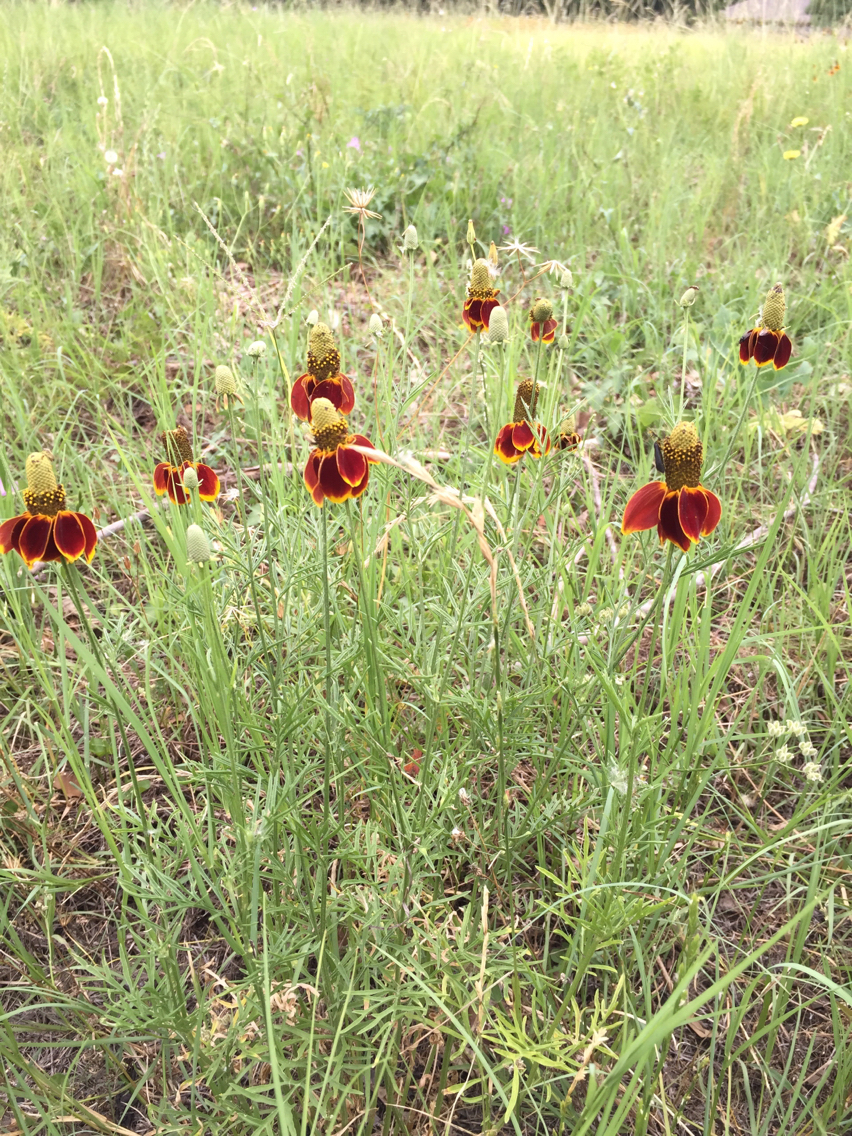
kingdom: Plantae
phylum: Tracheophyta
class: Magnoliopsida
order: Asterales
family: Asteraceae
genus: Ratibida
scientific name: Ratibida columnifera
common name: Prairie coneflower
